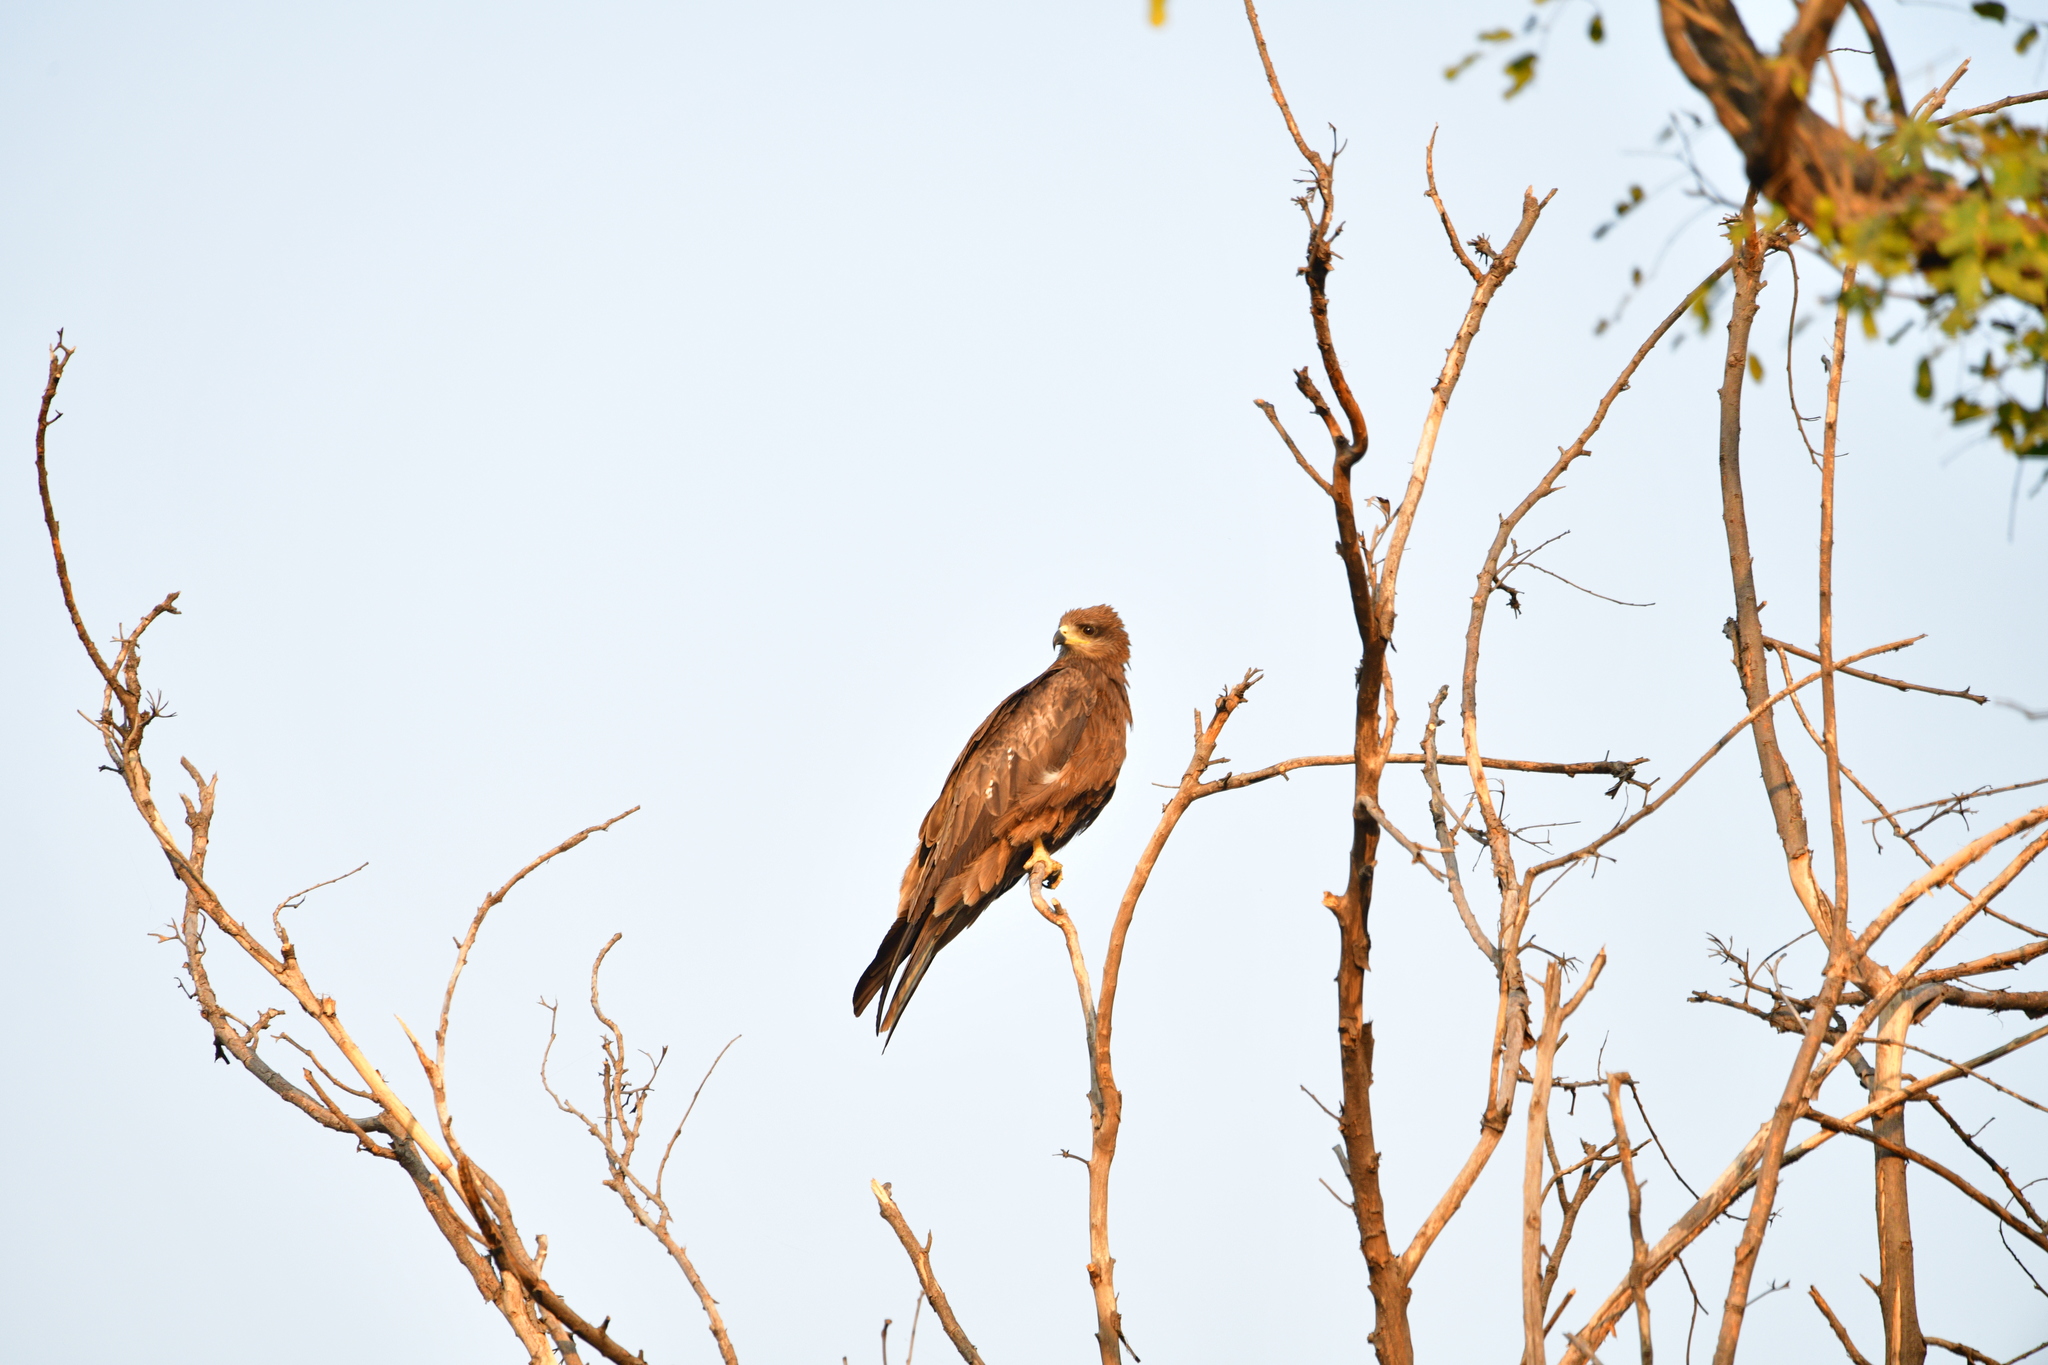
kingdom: Animalia
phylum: Chordata
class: Aves
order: Accipitriformes
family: Accipitridae
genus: Milvus
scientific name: Milvus migrans
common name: Black kite
